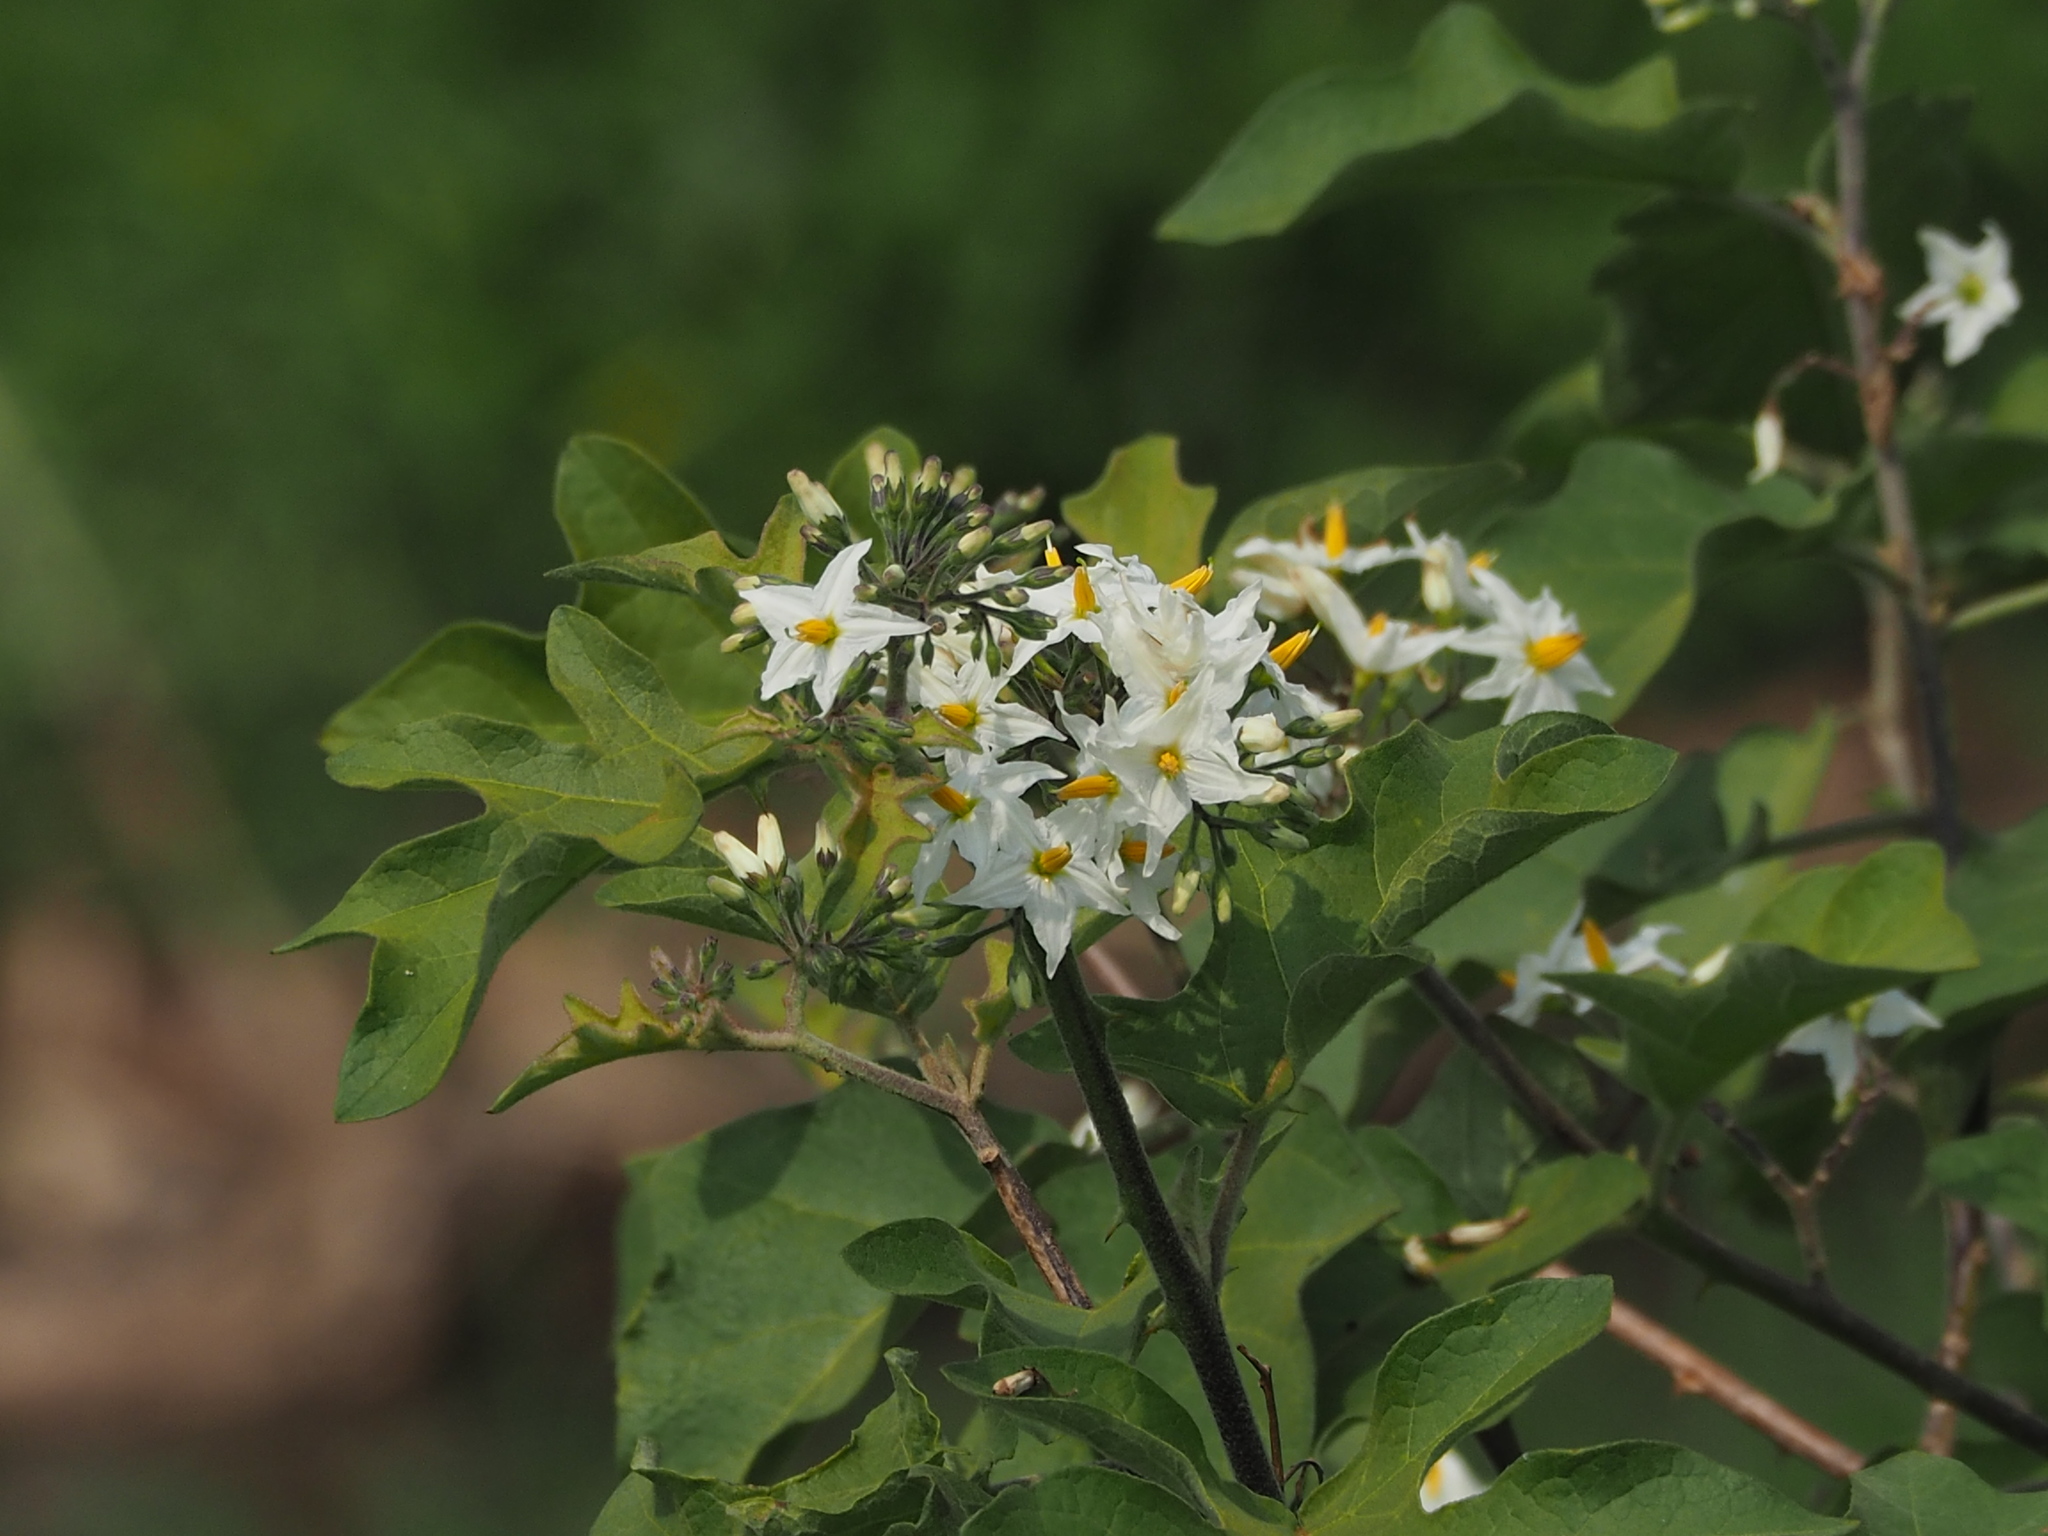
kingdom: Plantae
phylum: Tracheophyta
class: Magnoliopsida
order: Solanales
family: Solanaceae
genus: Solanum
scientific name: Solanum torvum
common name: Turkey berry
